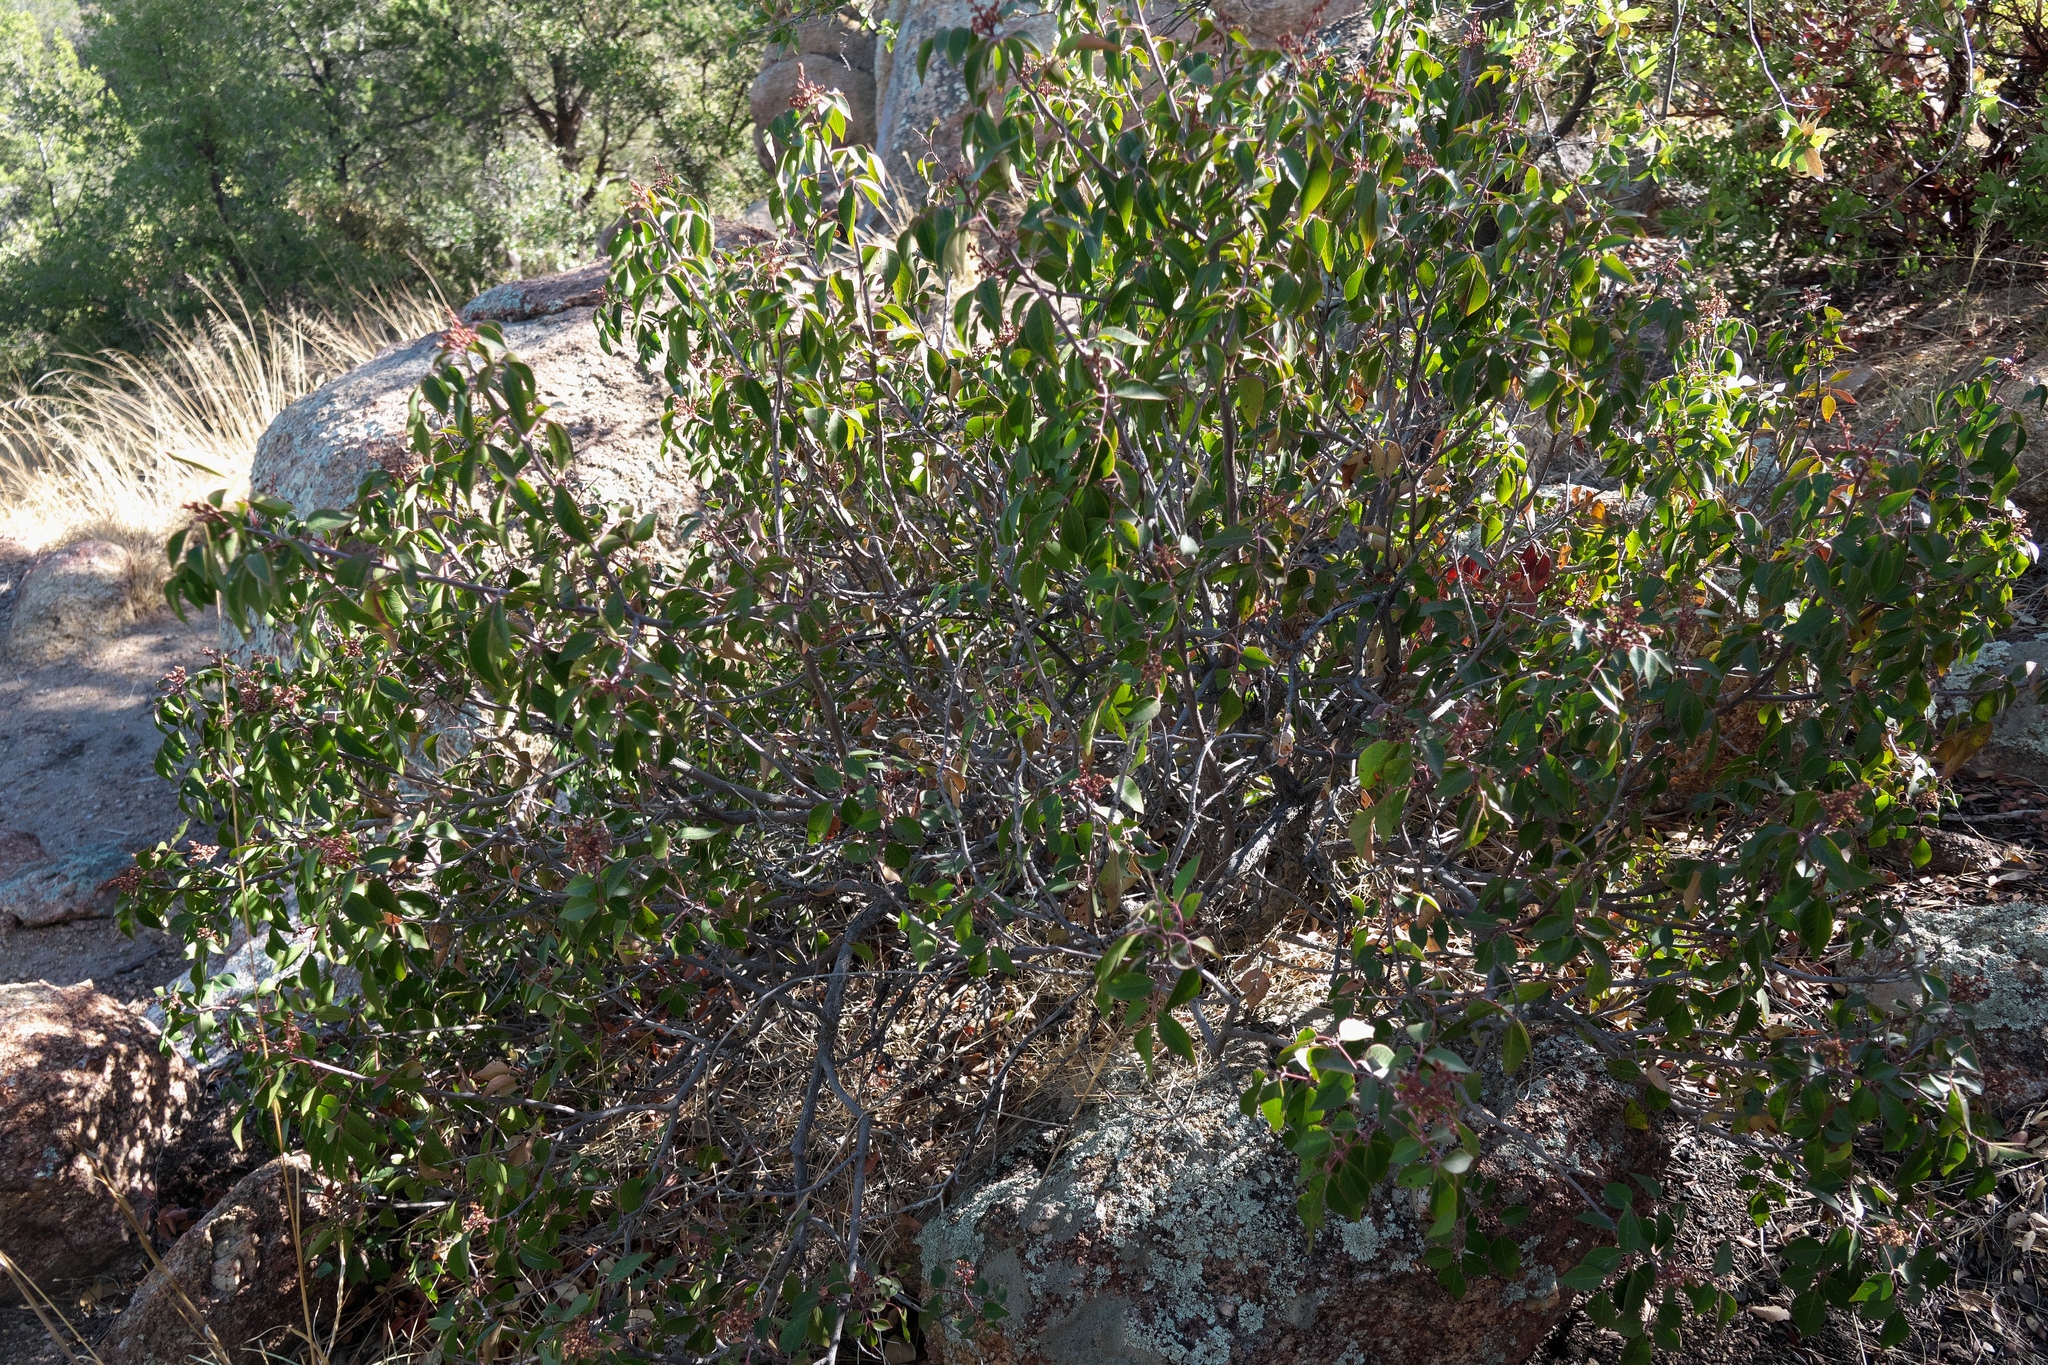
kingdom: Plantae
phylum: Tracheophyta
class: Magnoliopsida
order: Sapindales
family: Anacardiaceae
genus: Rhus
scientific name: Rhus virens
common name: Evergreen sumac
